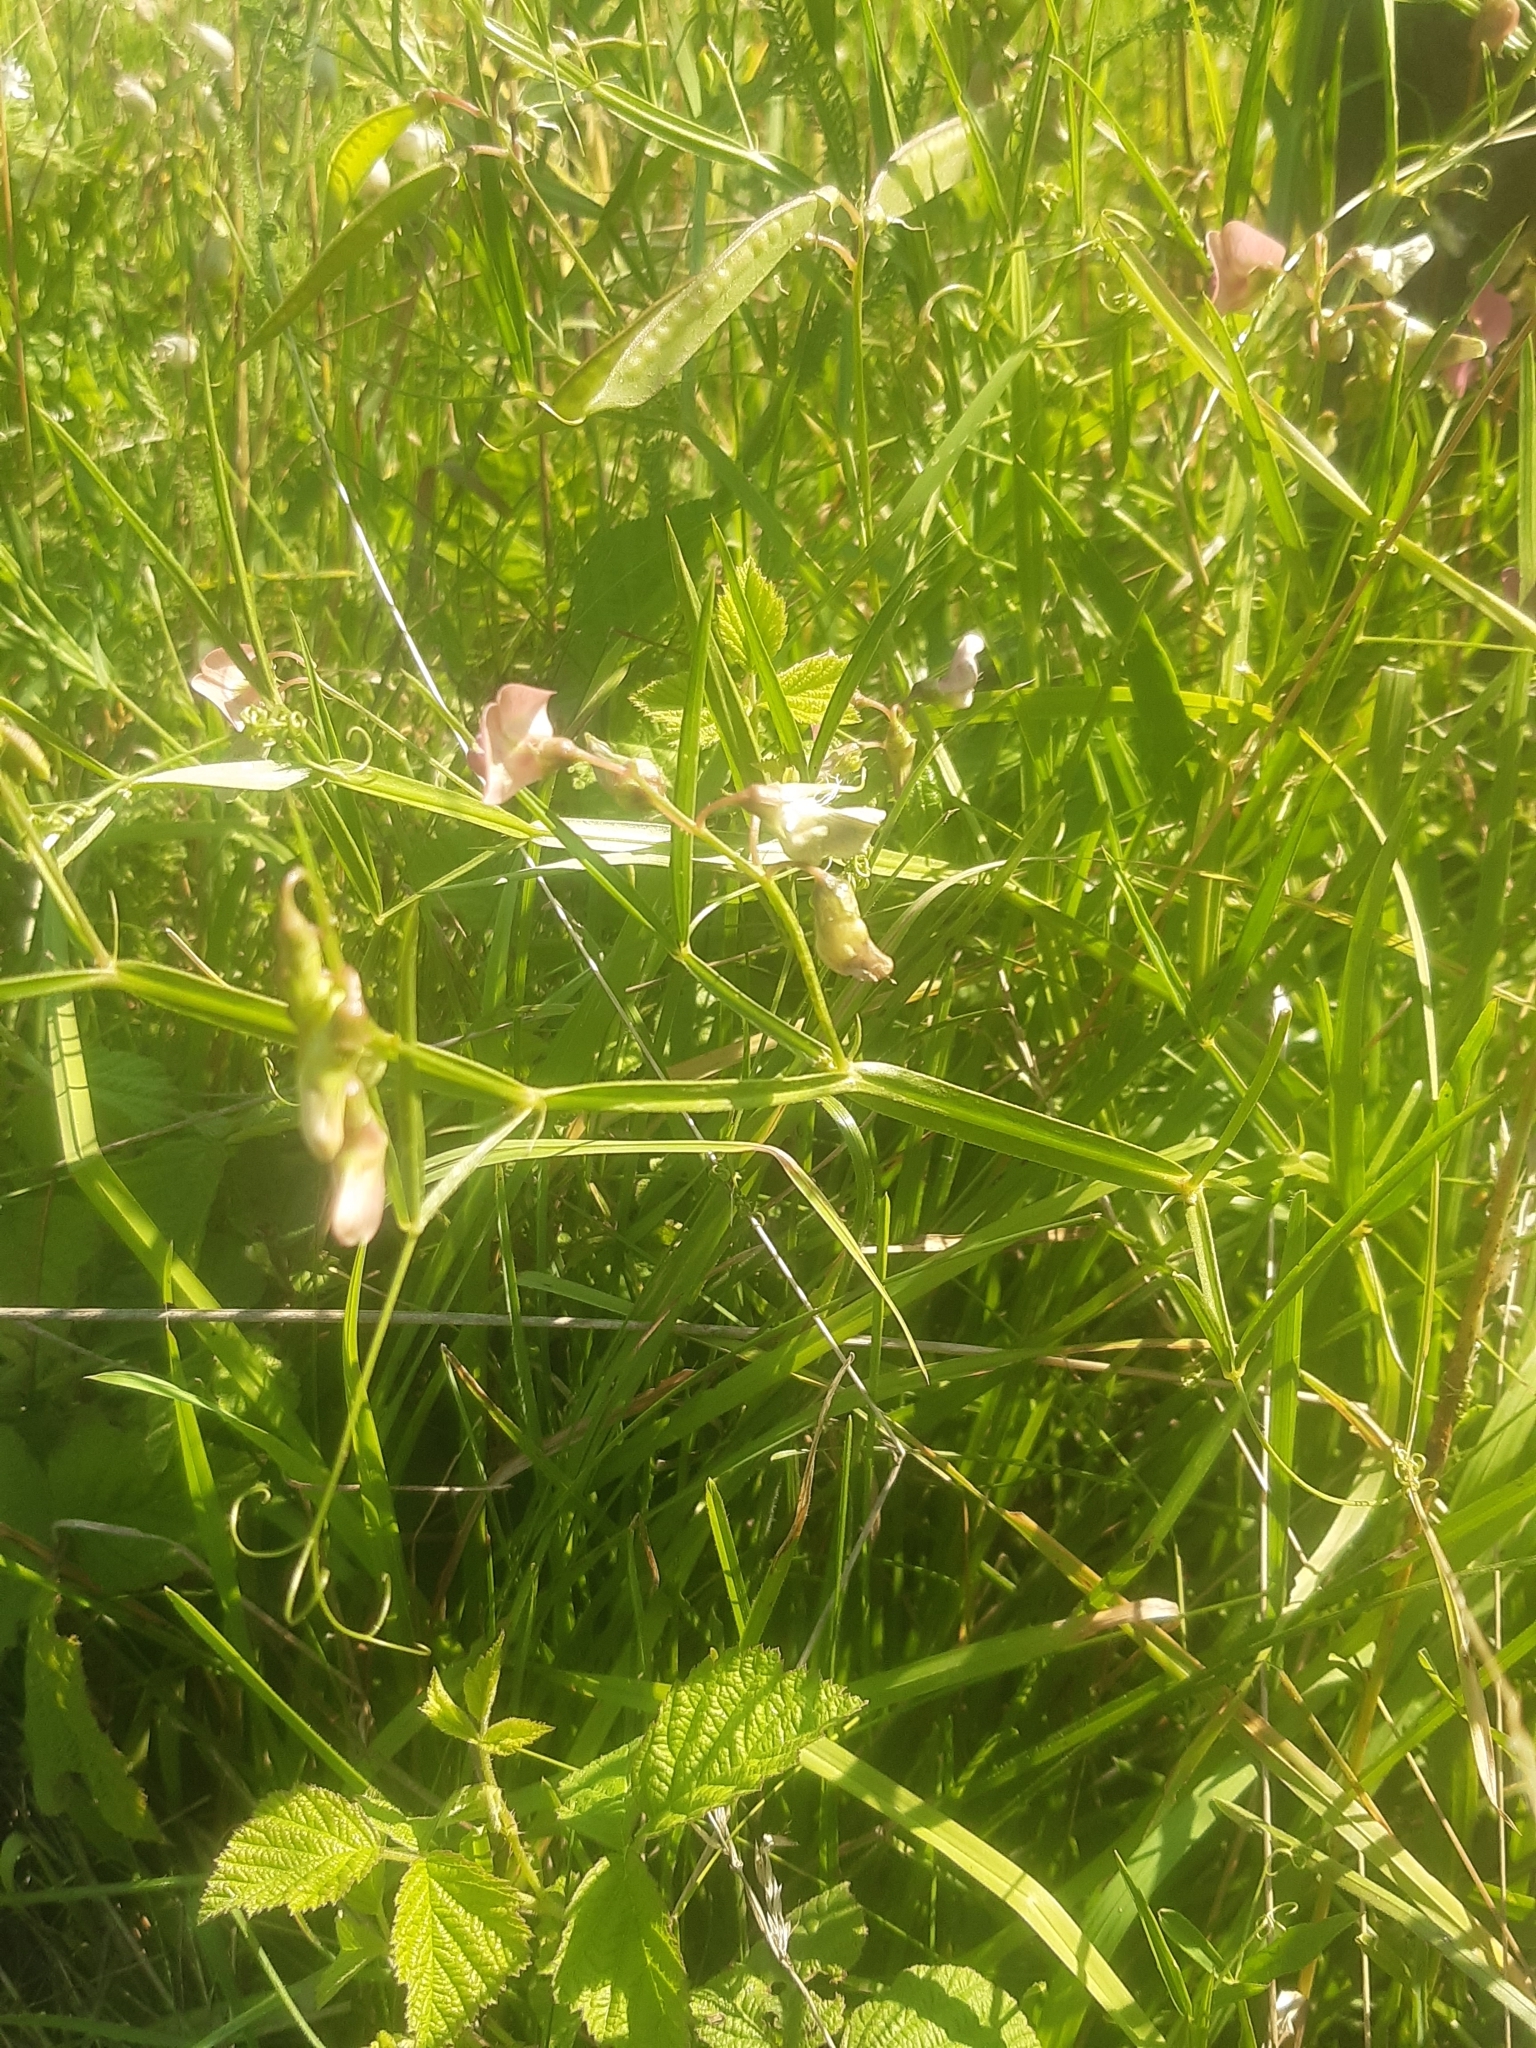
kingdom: Plantae
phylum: Tracheophyta
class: Magnoliopsida
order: Fabales
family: Fabaceae
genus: Lathyrus
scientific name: Lathyrus sylvestris
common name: Flat pea
